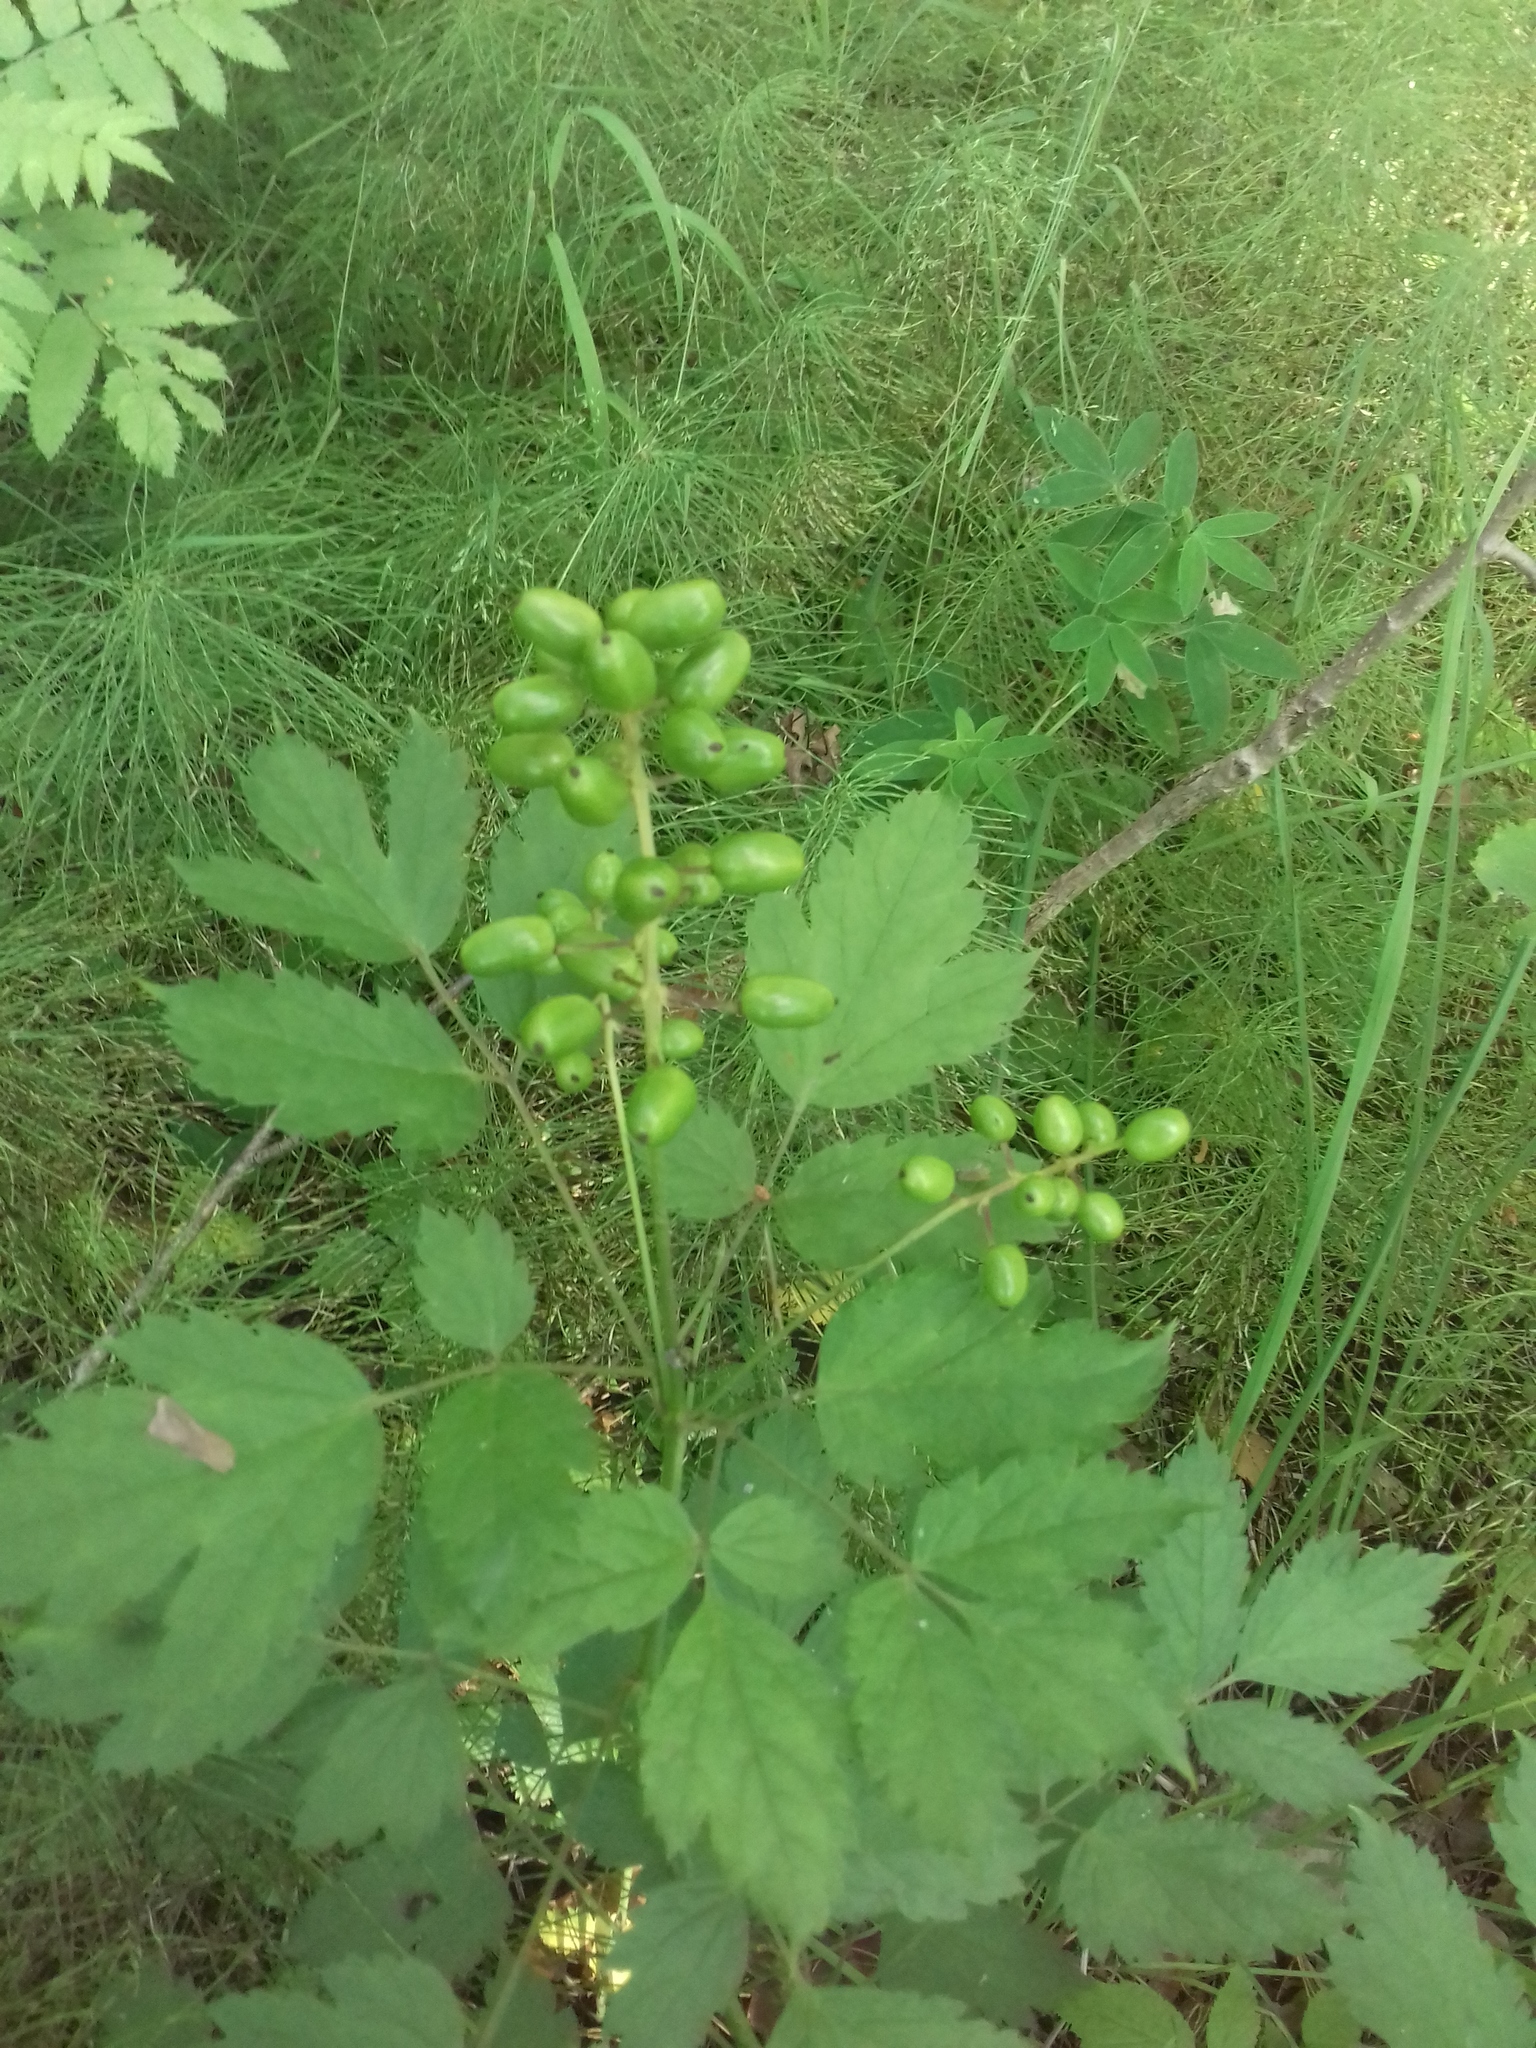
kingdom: Plantae
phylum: Tracheophyta
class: Magnoliopsida
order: Ranunculales
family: Ranunculaceae
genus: Actaea
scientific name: Actaea spicata
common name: Baneberry
